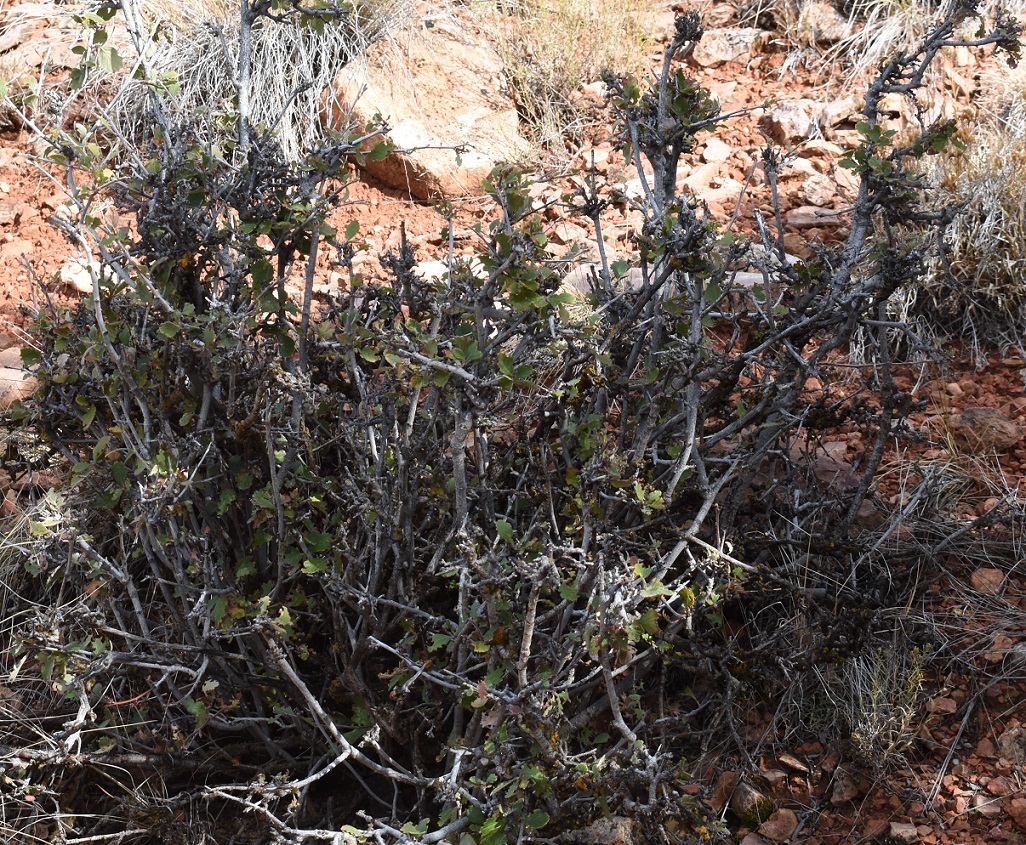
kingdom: Plantae
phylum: Tracheophyta
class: Magnoliopsida
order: Rosales
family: Rosaceae
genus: Cercocarpus
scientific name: Cercocarpus montanus
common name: Alder-leaf cercocarpus
